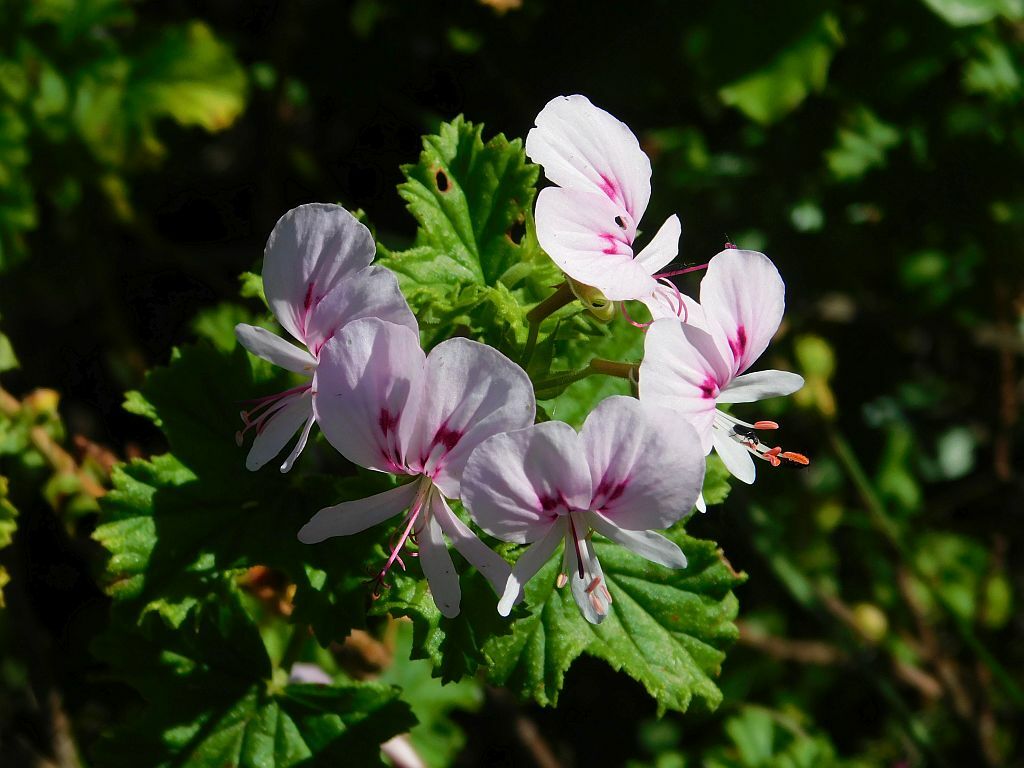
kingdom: Plantae
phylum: Tracheophyta
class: Magnoliopsida
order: Geraniales
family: Geraniaceae
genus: Pelargonium
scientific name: Pelargonium greytonense
